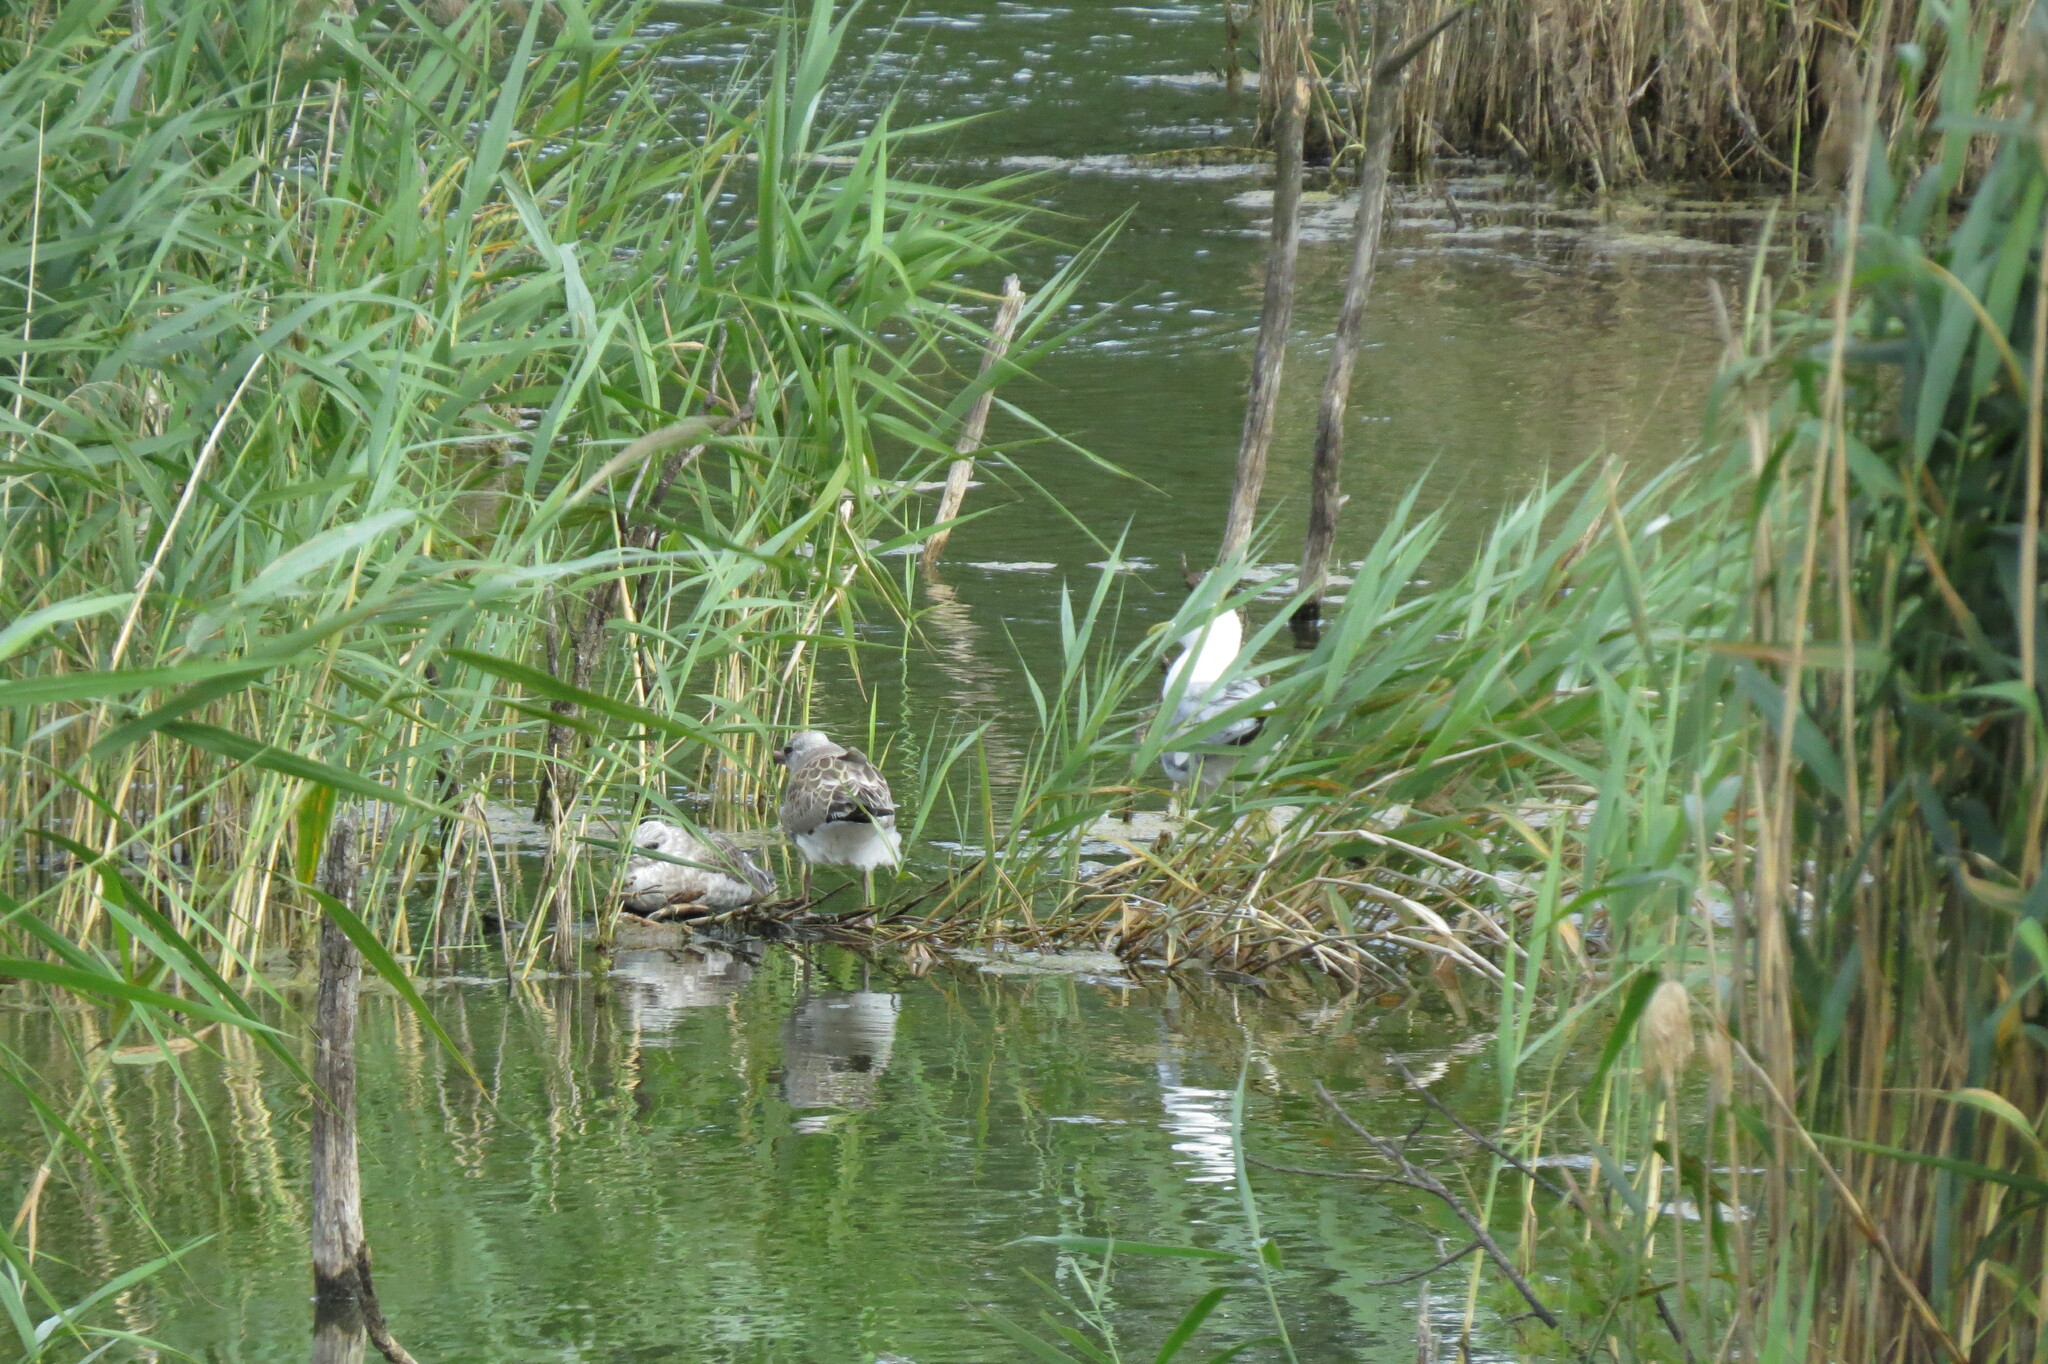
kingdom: Animalia
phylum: Chordata
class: Aves
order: Charadriiformes
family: Laridae
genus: Larus
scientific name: Larus canus
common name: Mew gull
